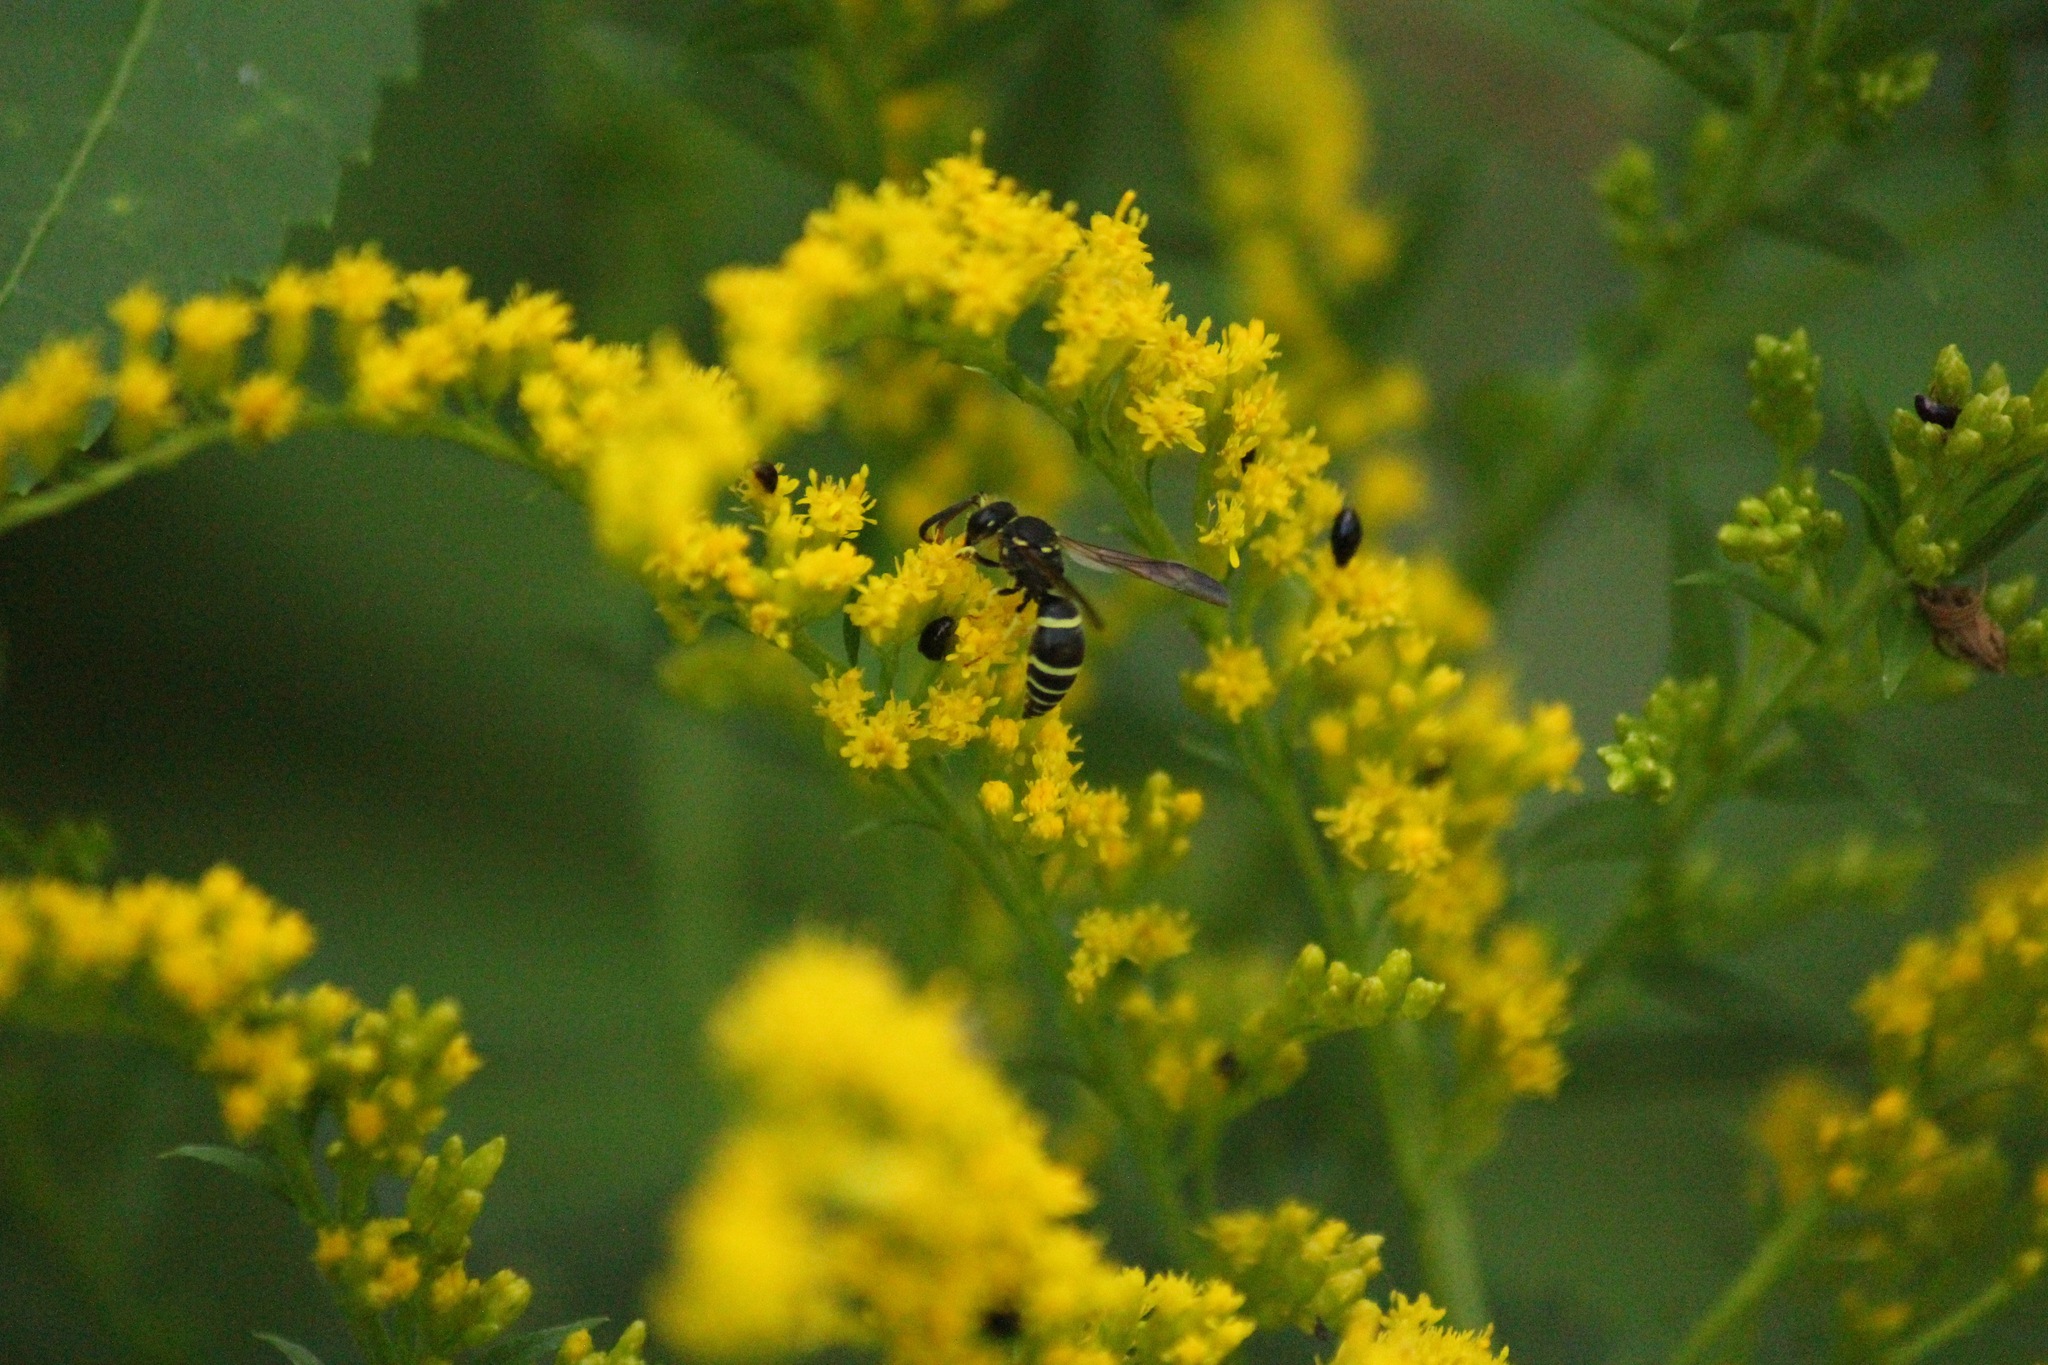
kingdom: Animalia
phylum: Arthropoda
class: Insecta
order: Hymenoptera
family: Vespidae
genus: Ancistrocerus
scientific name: Ancistrocerus
